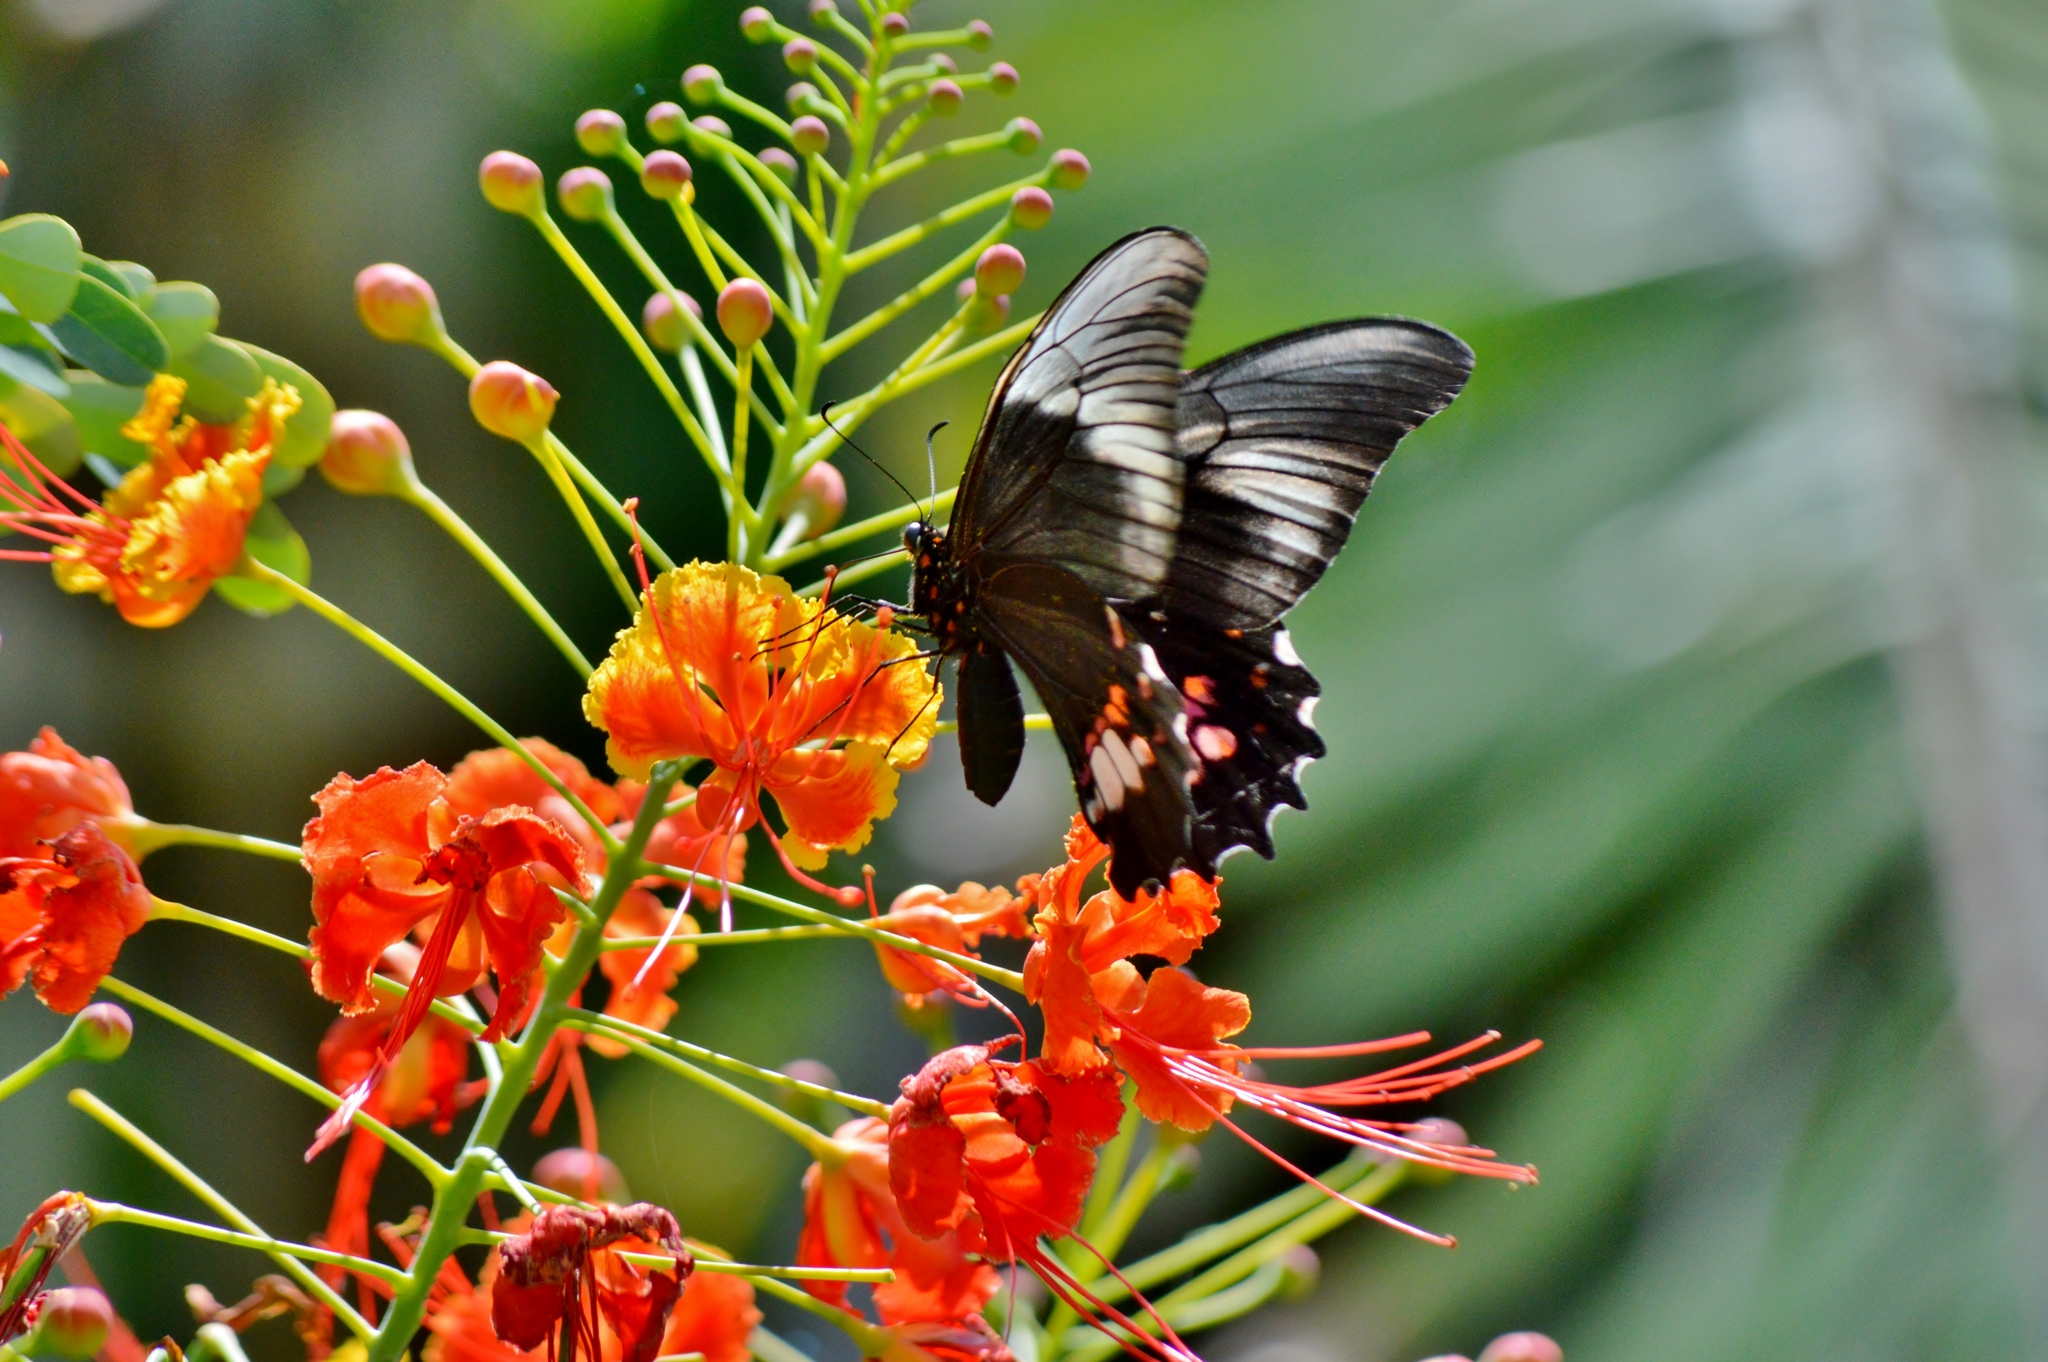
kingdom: Animalia
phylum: Arthropoda
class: Insecta
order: Lepidoptera
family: Papilionidae
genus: Papilio
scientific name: Papilio anchisiades
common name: Idaes swallowtail
